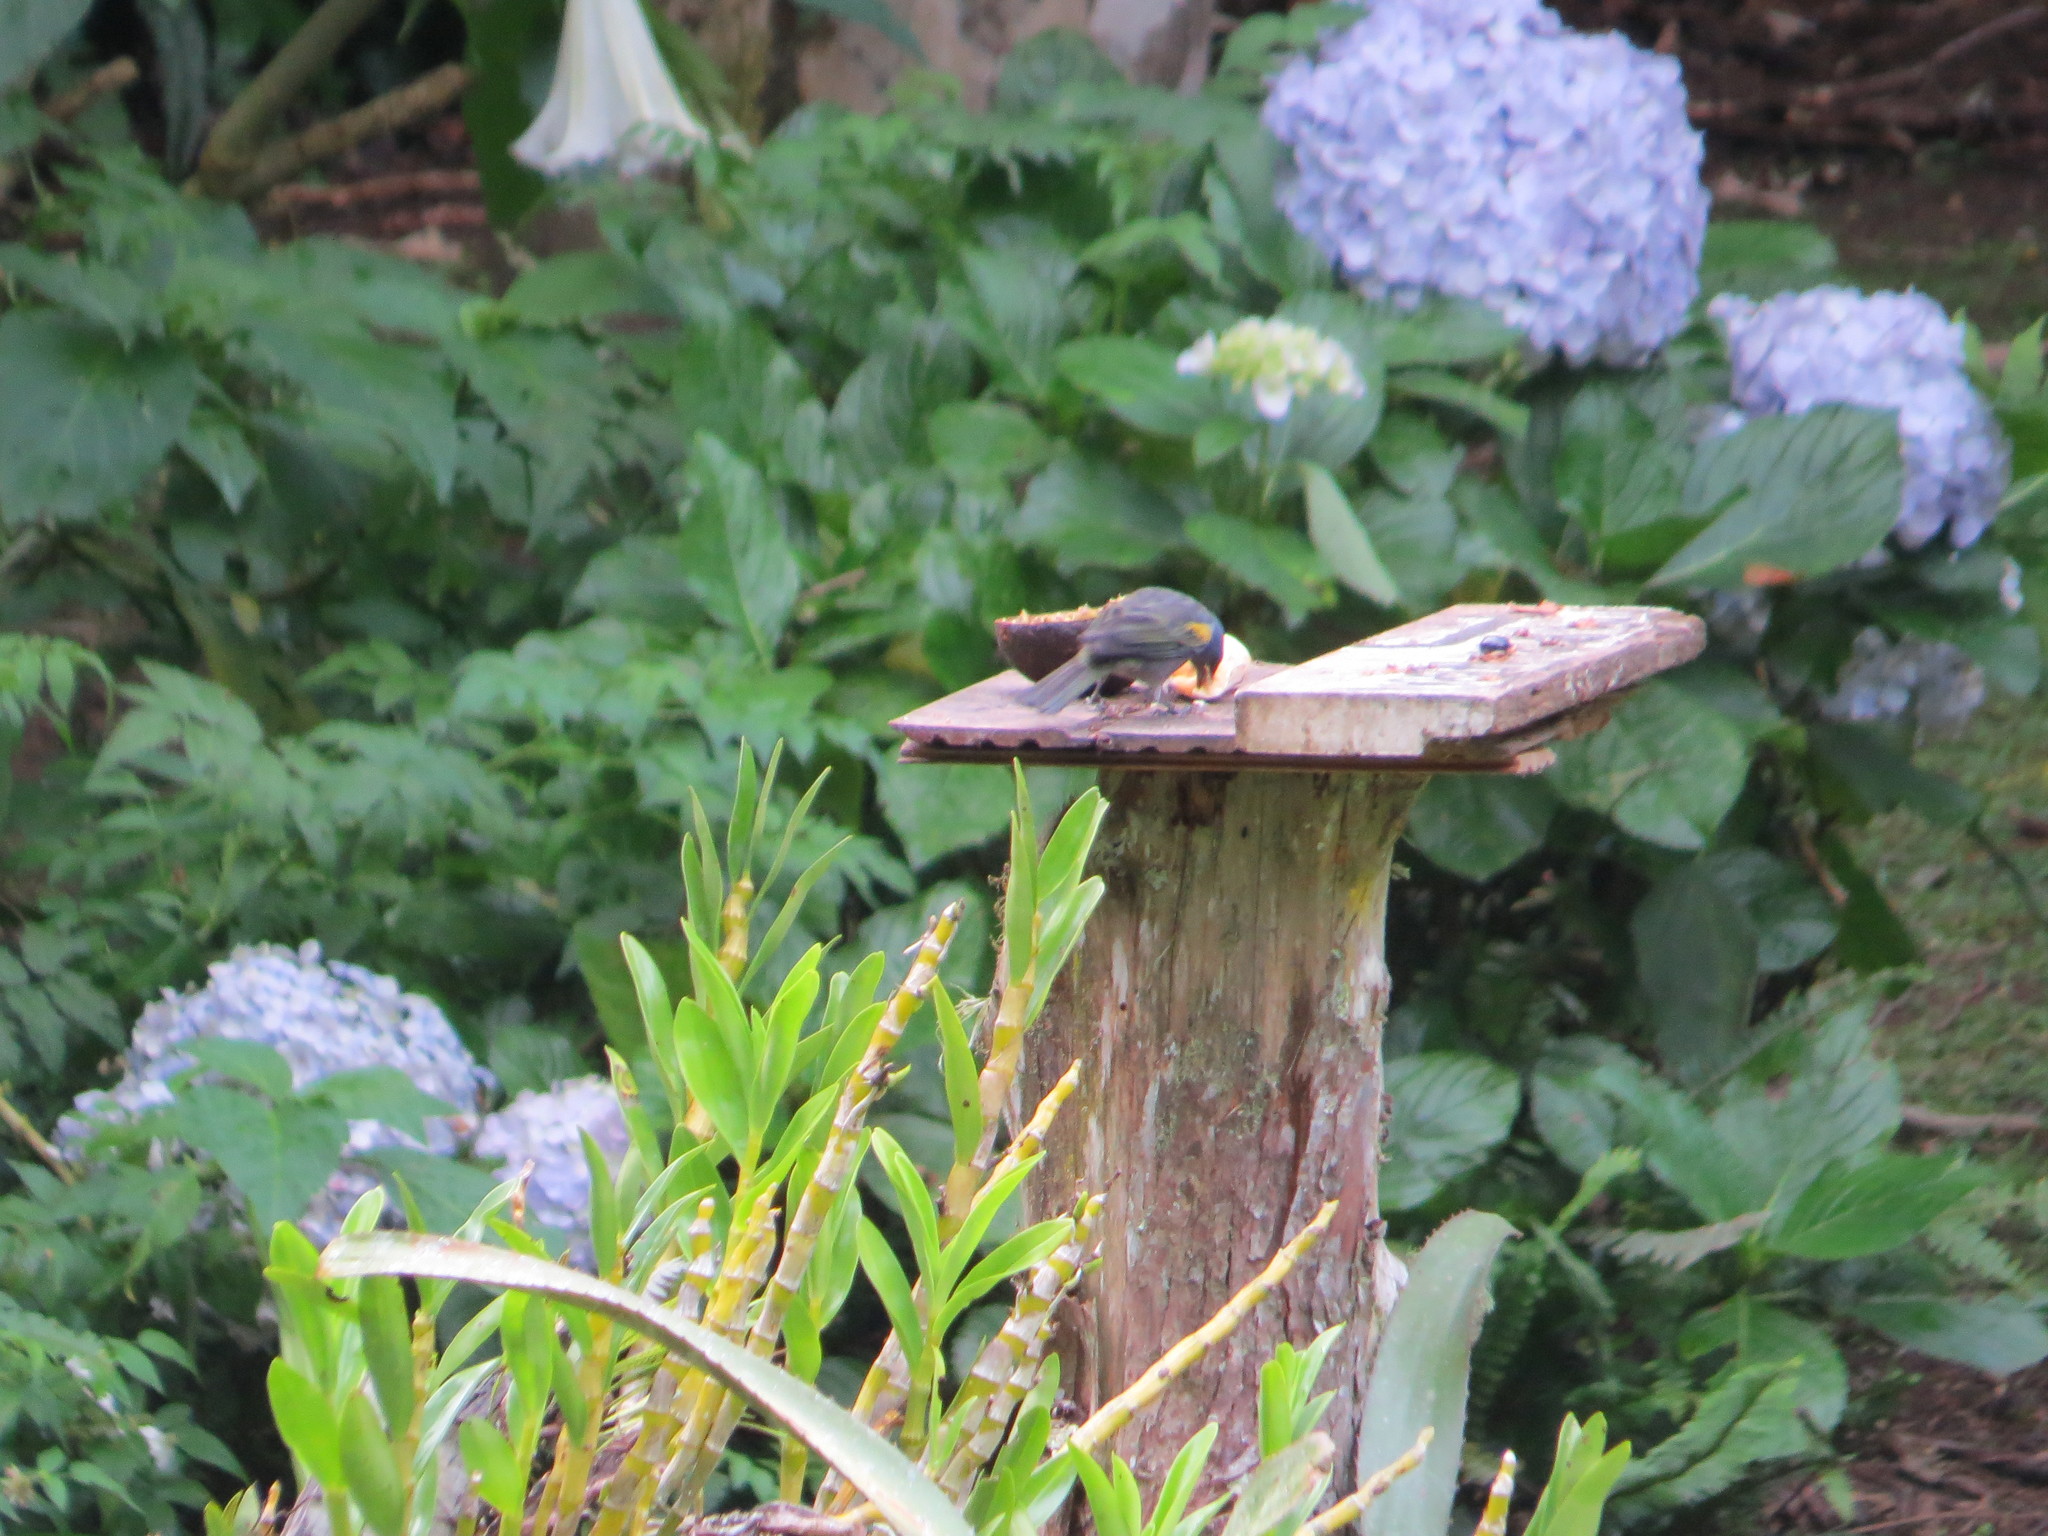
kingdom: Animalia
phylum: Chordata
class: Aves
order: Passeriformes
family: Thraupidae
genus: Thraupis
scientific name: Thraupis ornata
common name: Golden-chevroned tanager
